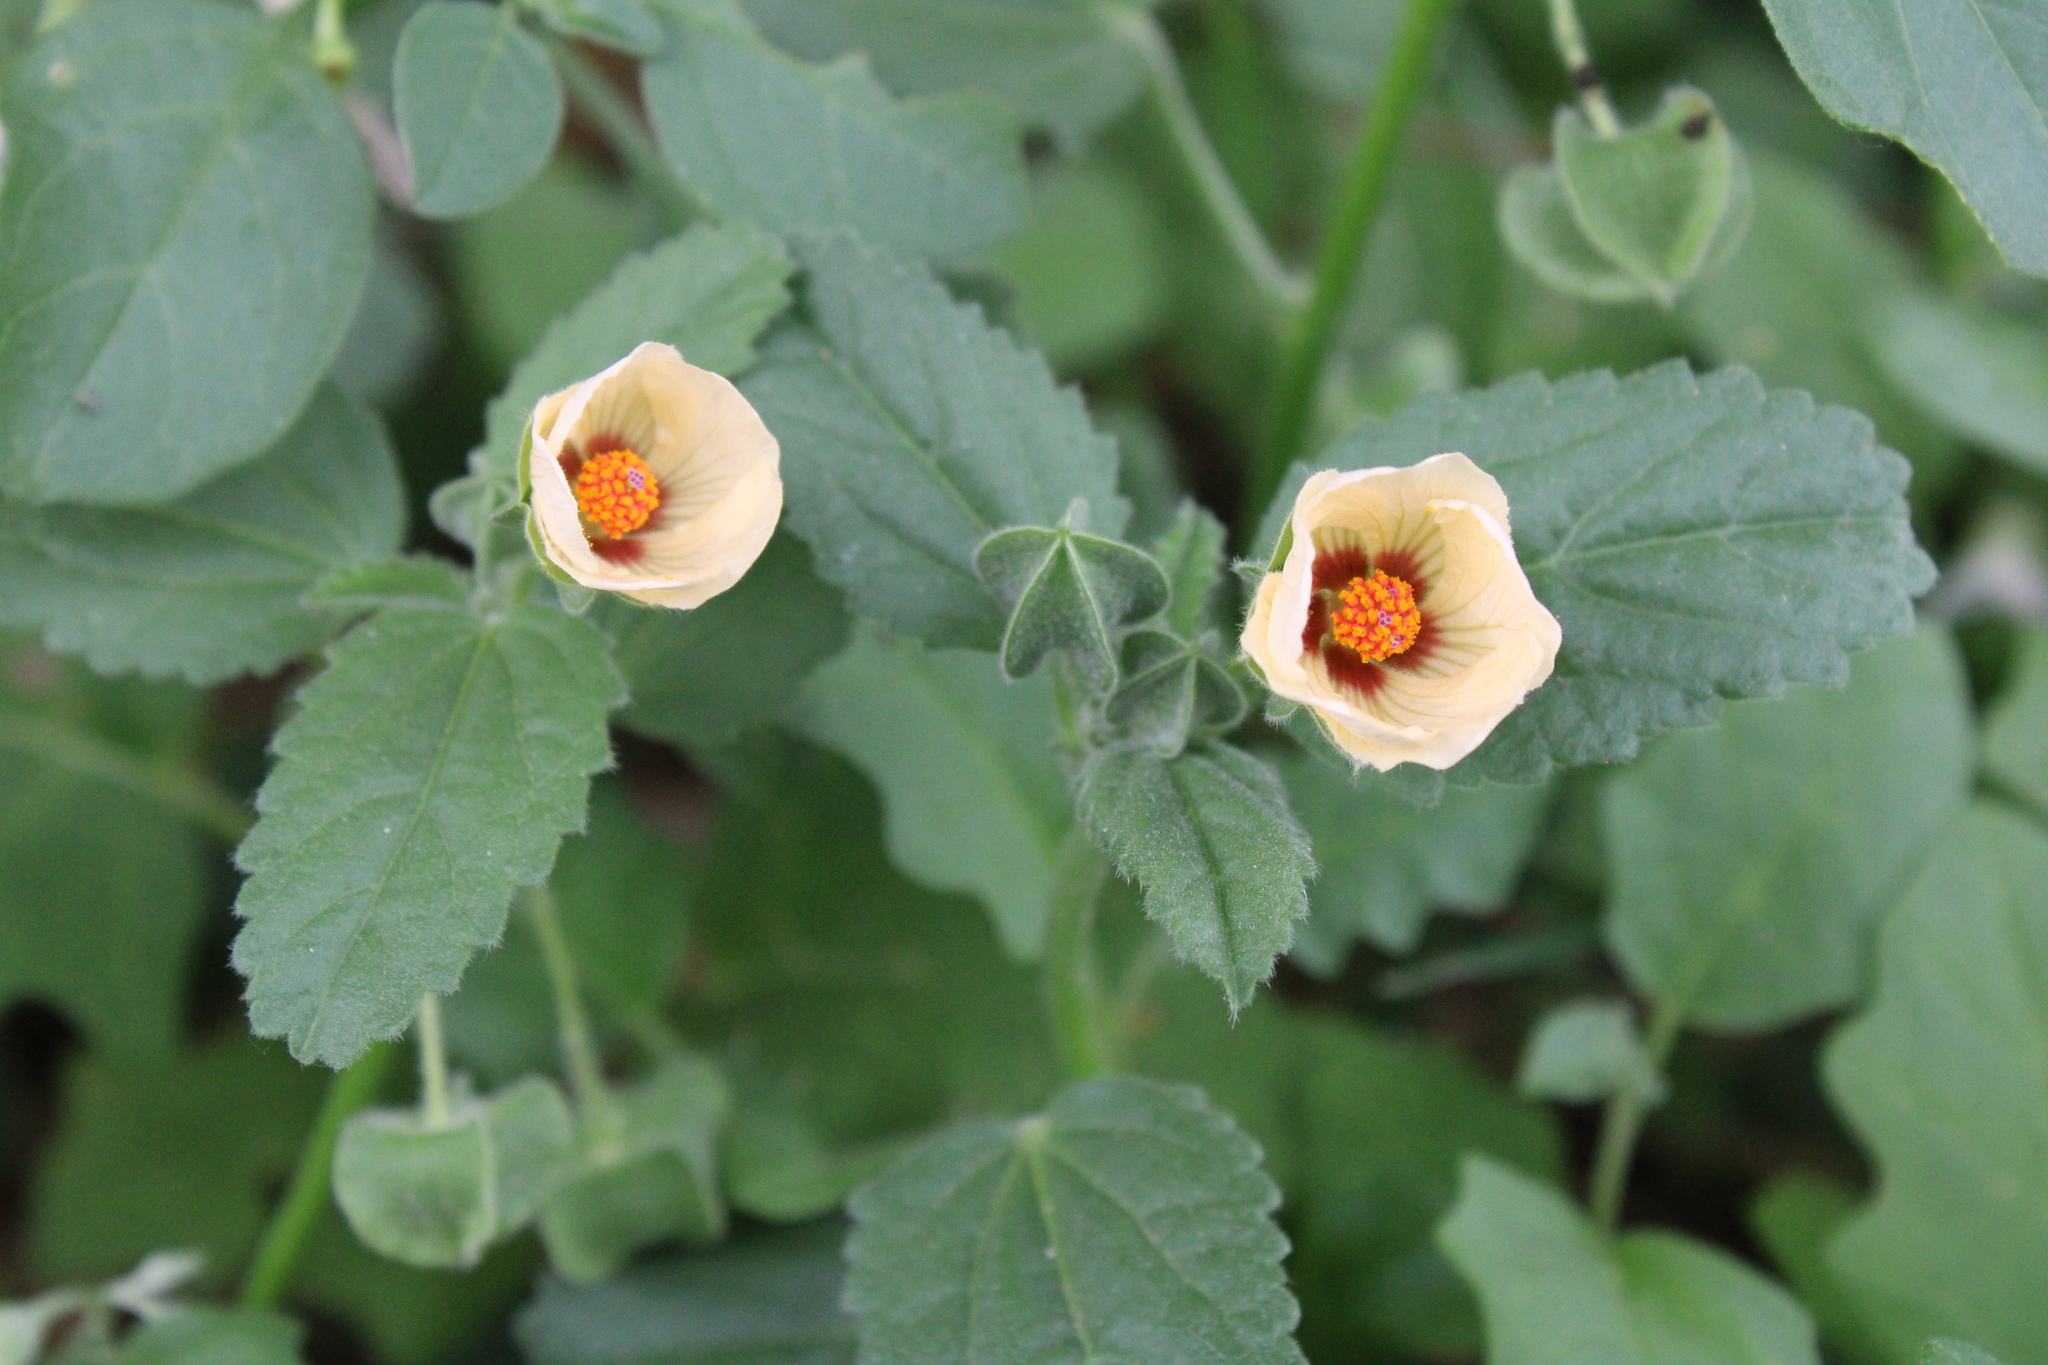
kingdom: Plantae
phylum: Tracheophyta
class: Magnoliopsida
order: Malvales
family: Malvaceae
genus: Rhynchosida
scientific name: Rhynchosida physocalyx
